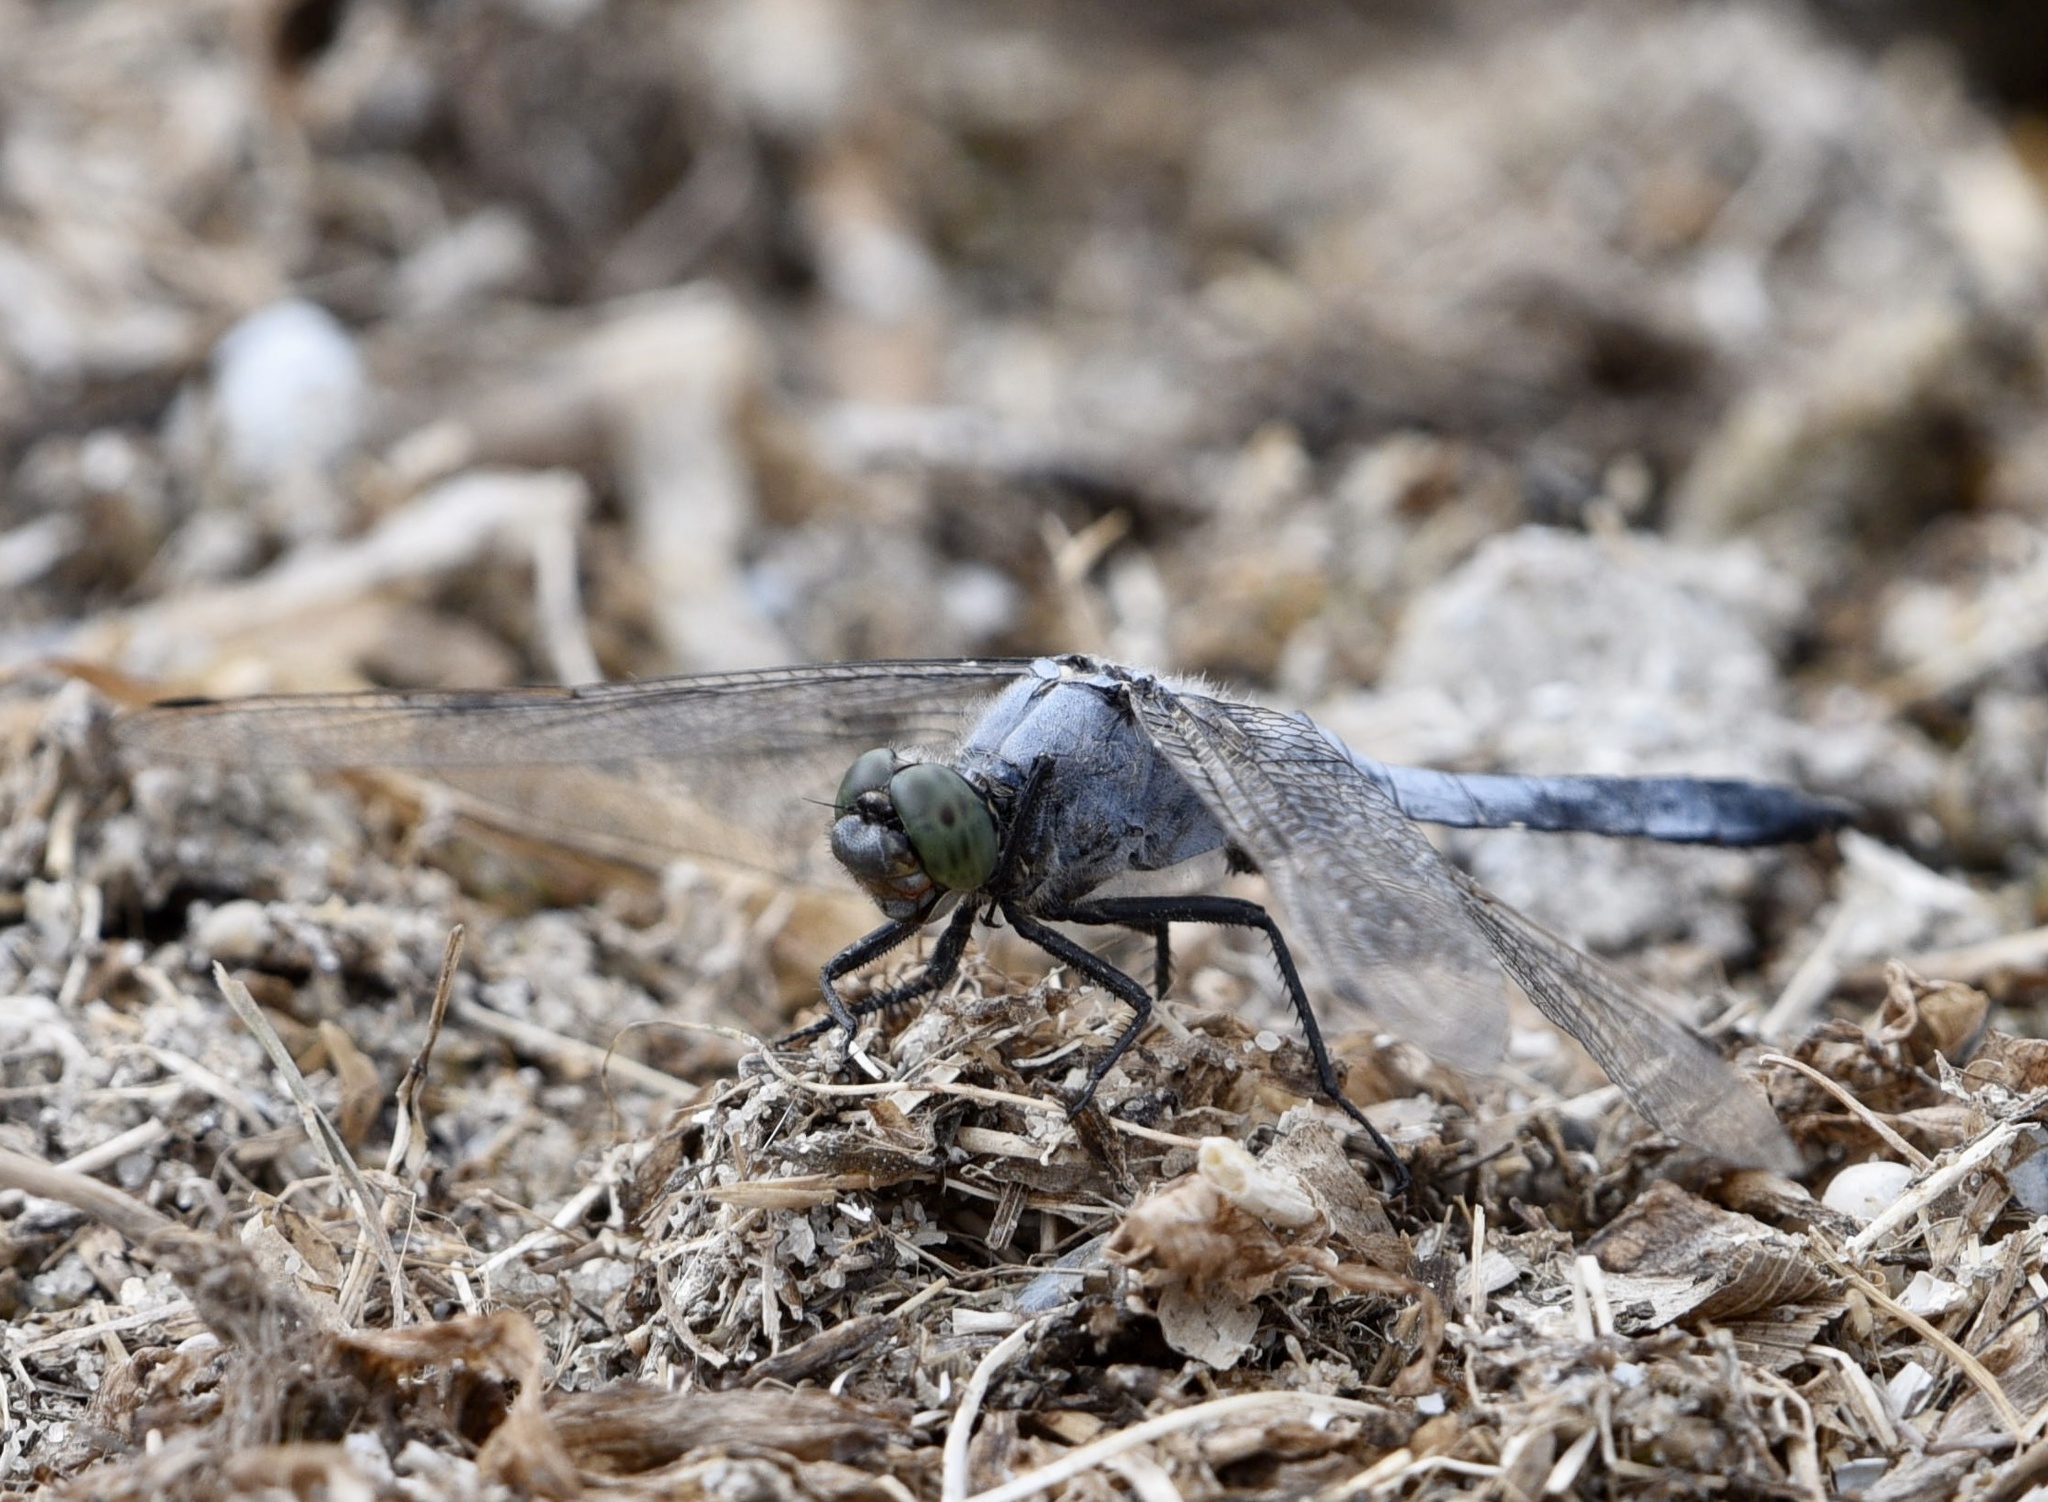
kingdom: Animalia
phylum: Arthropoda
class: Insecta
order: Odonata
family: Libellulidae
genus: Orthetrum
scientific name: Orthetrum cancellatum
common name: Black-tailed skimmer
